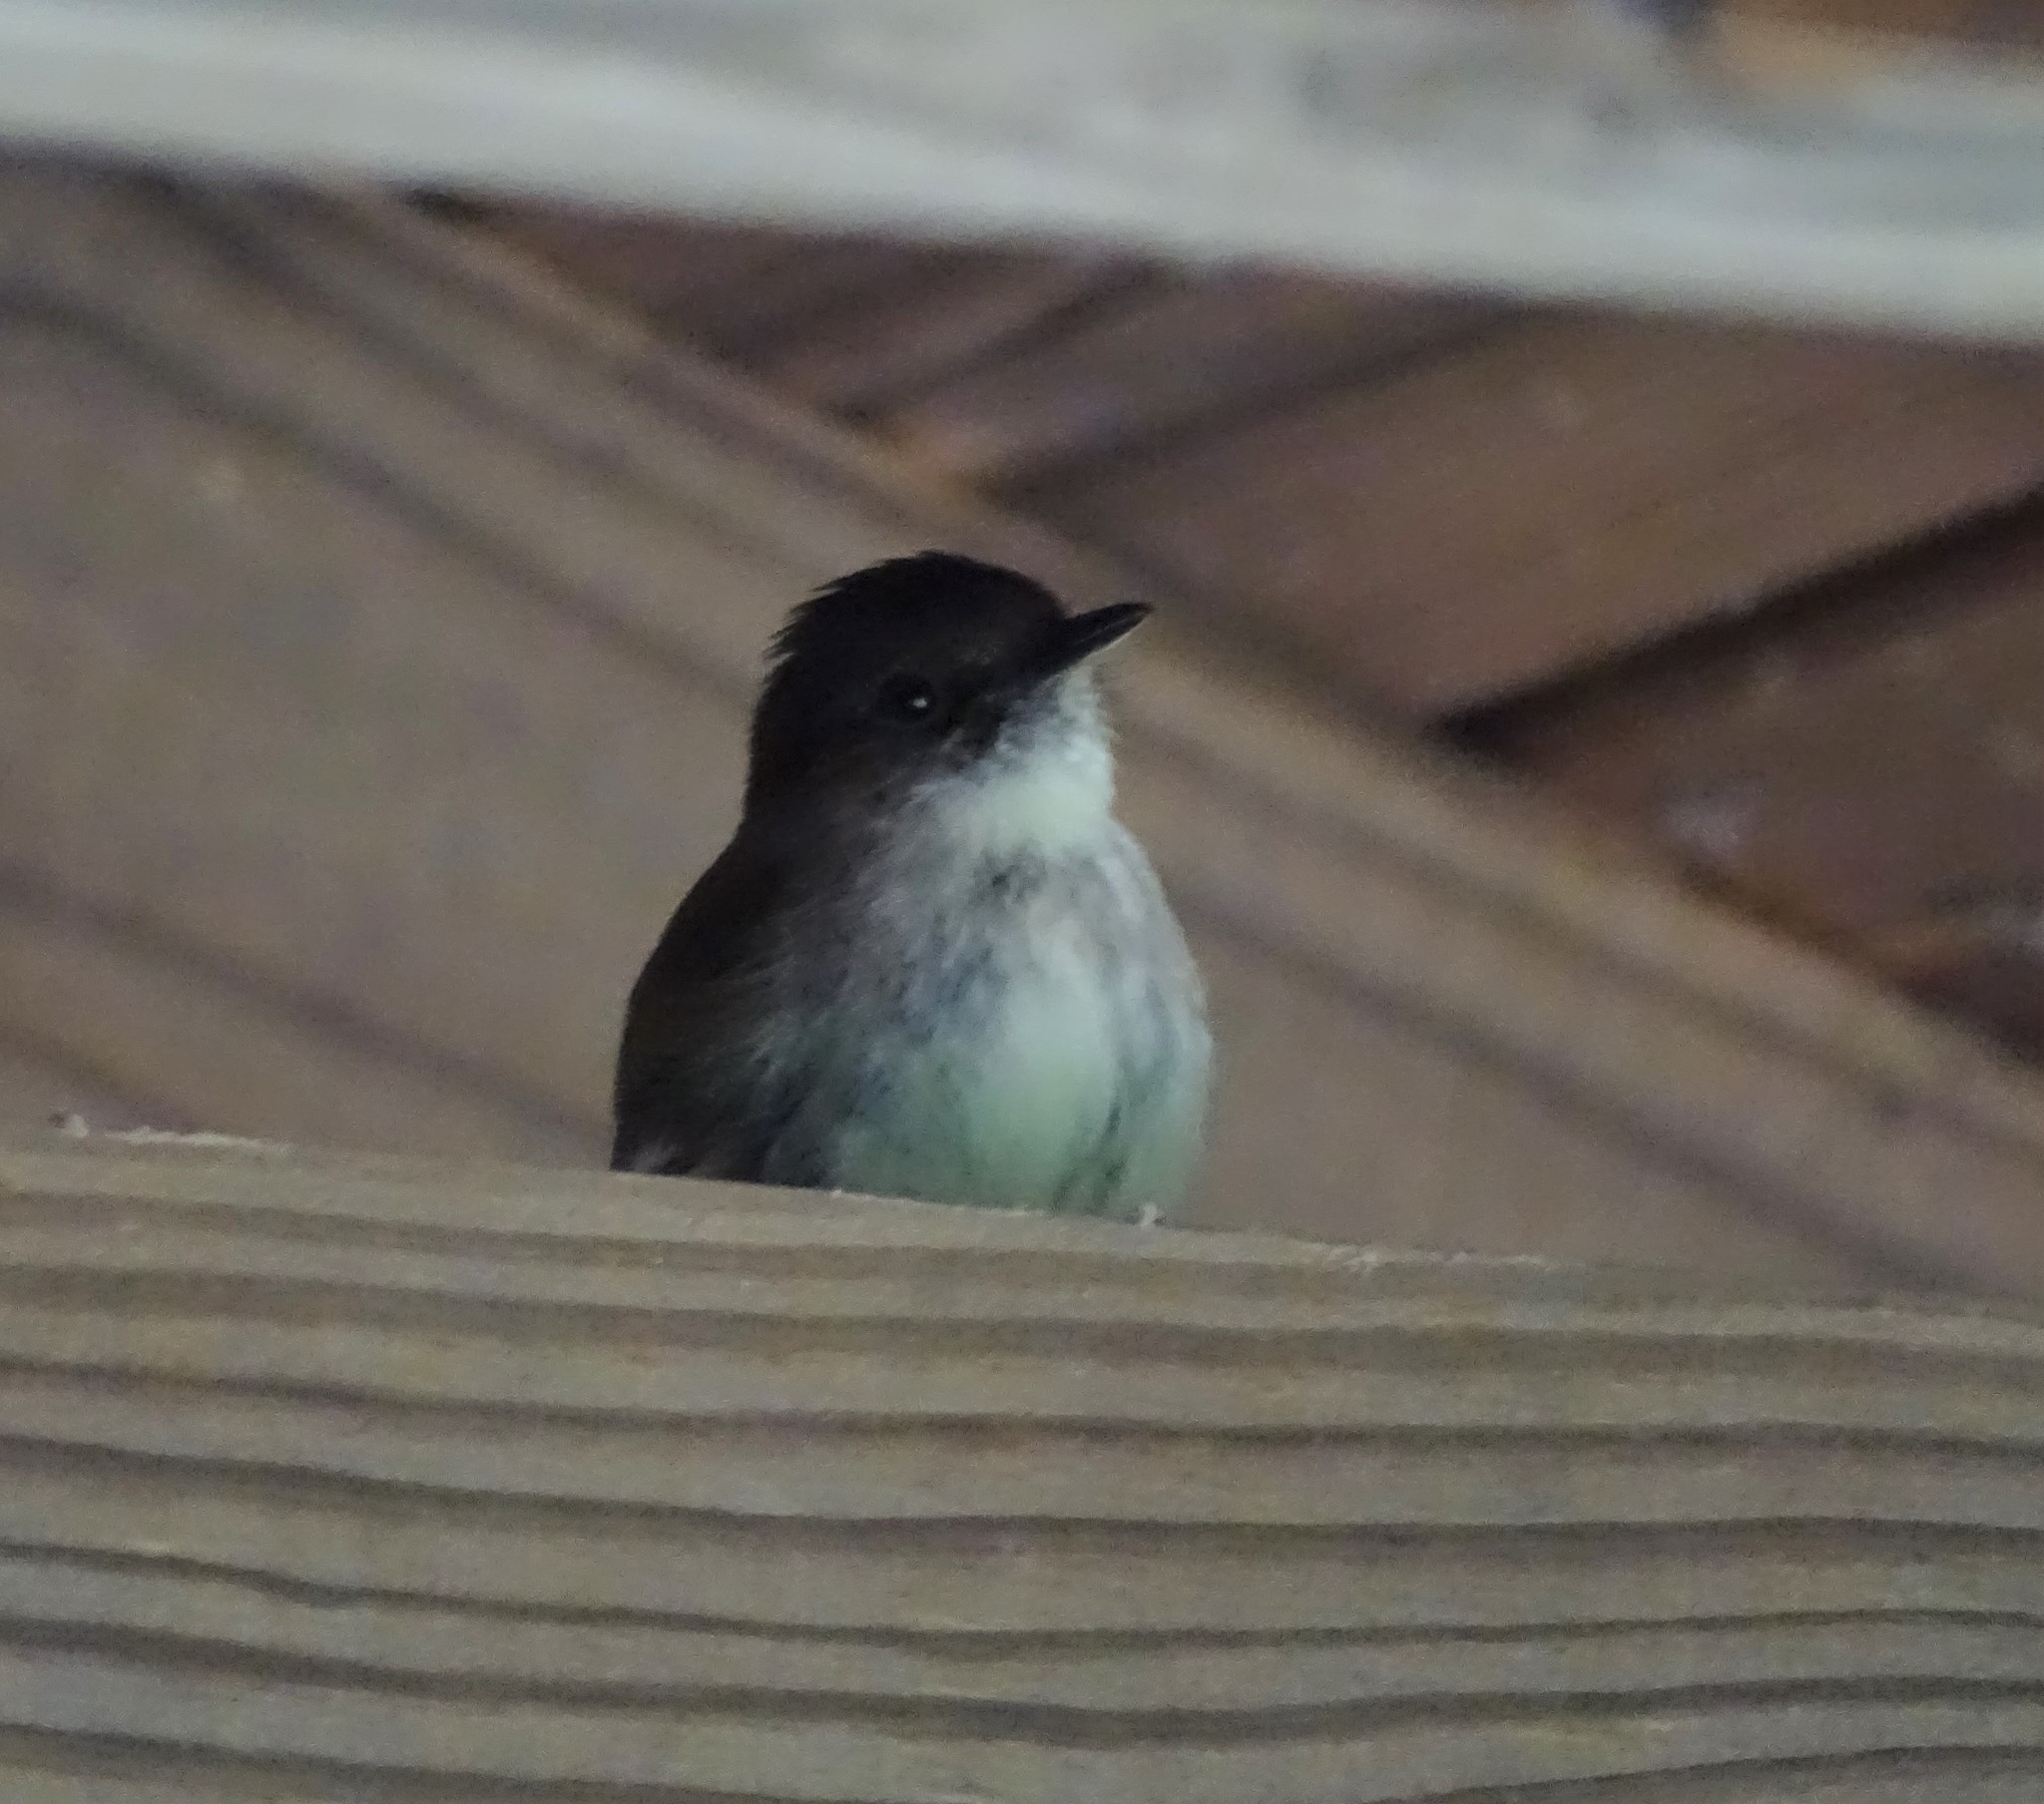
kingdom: Animalia
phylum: Chordata
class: Aves
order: Passeriformes
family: Tyrannidae
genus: Sayornis
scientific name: Sayornis phoebe
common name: Eastern phoebe
